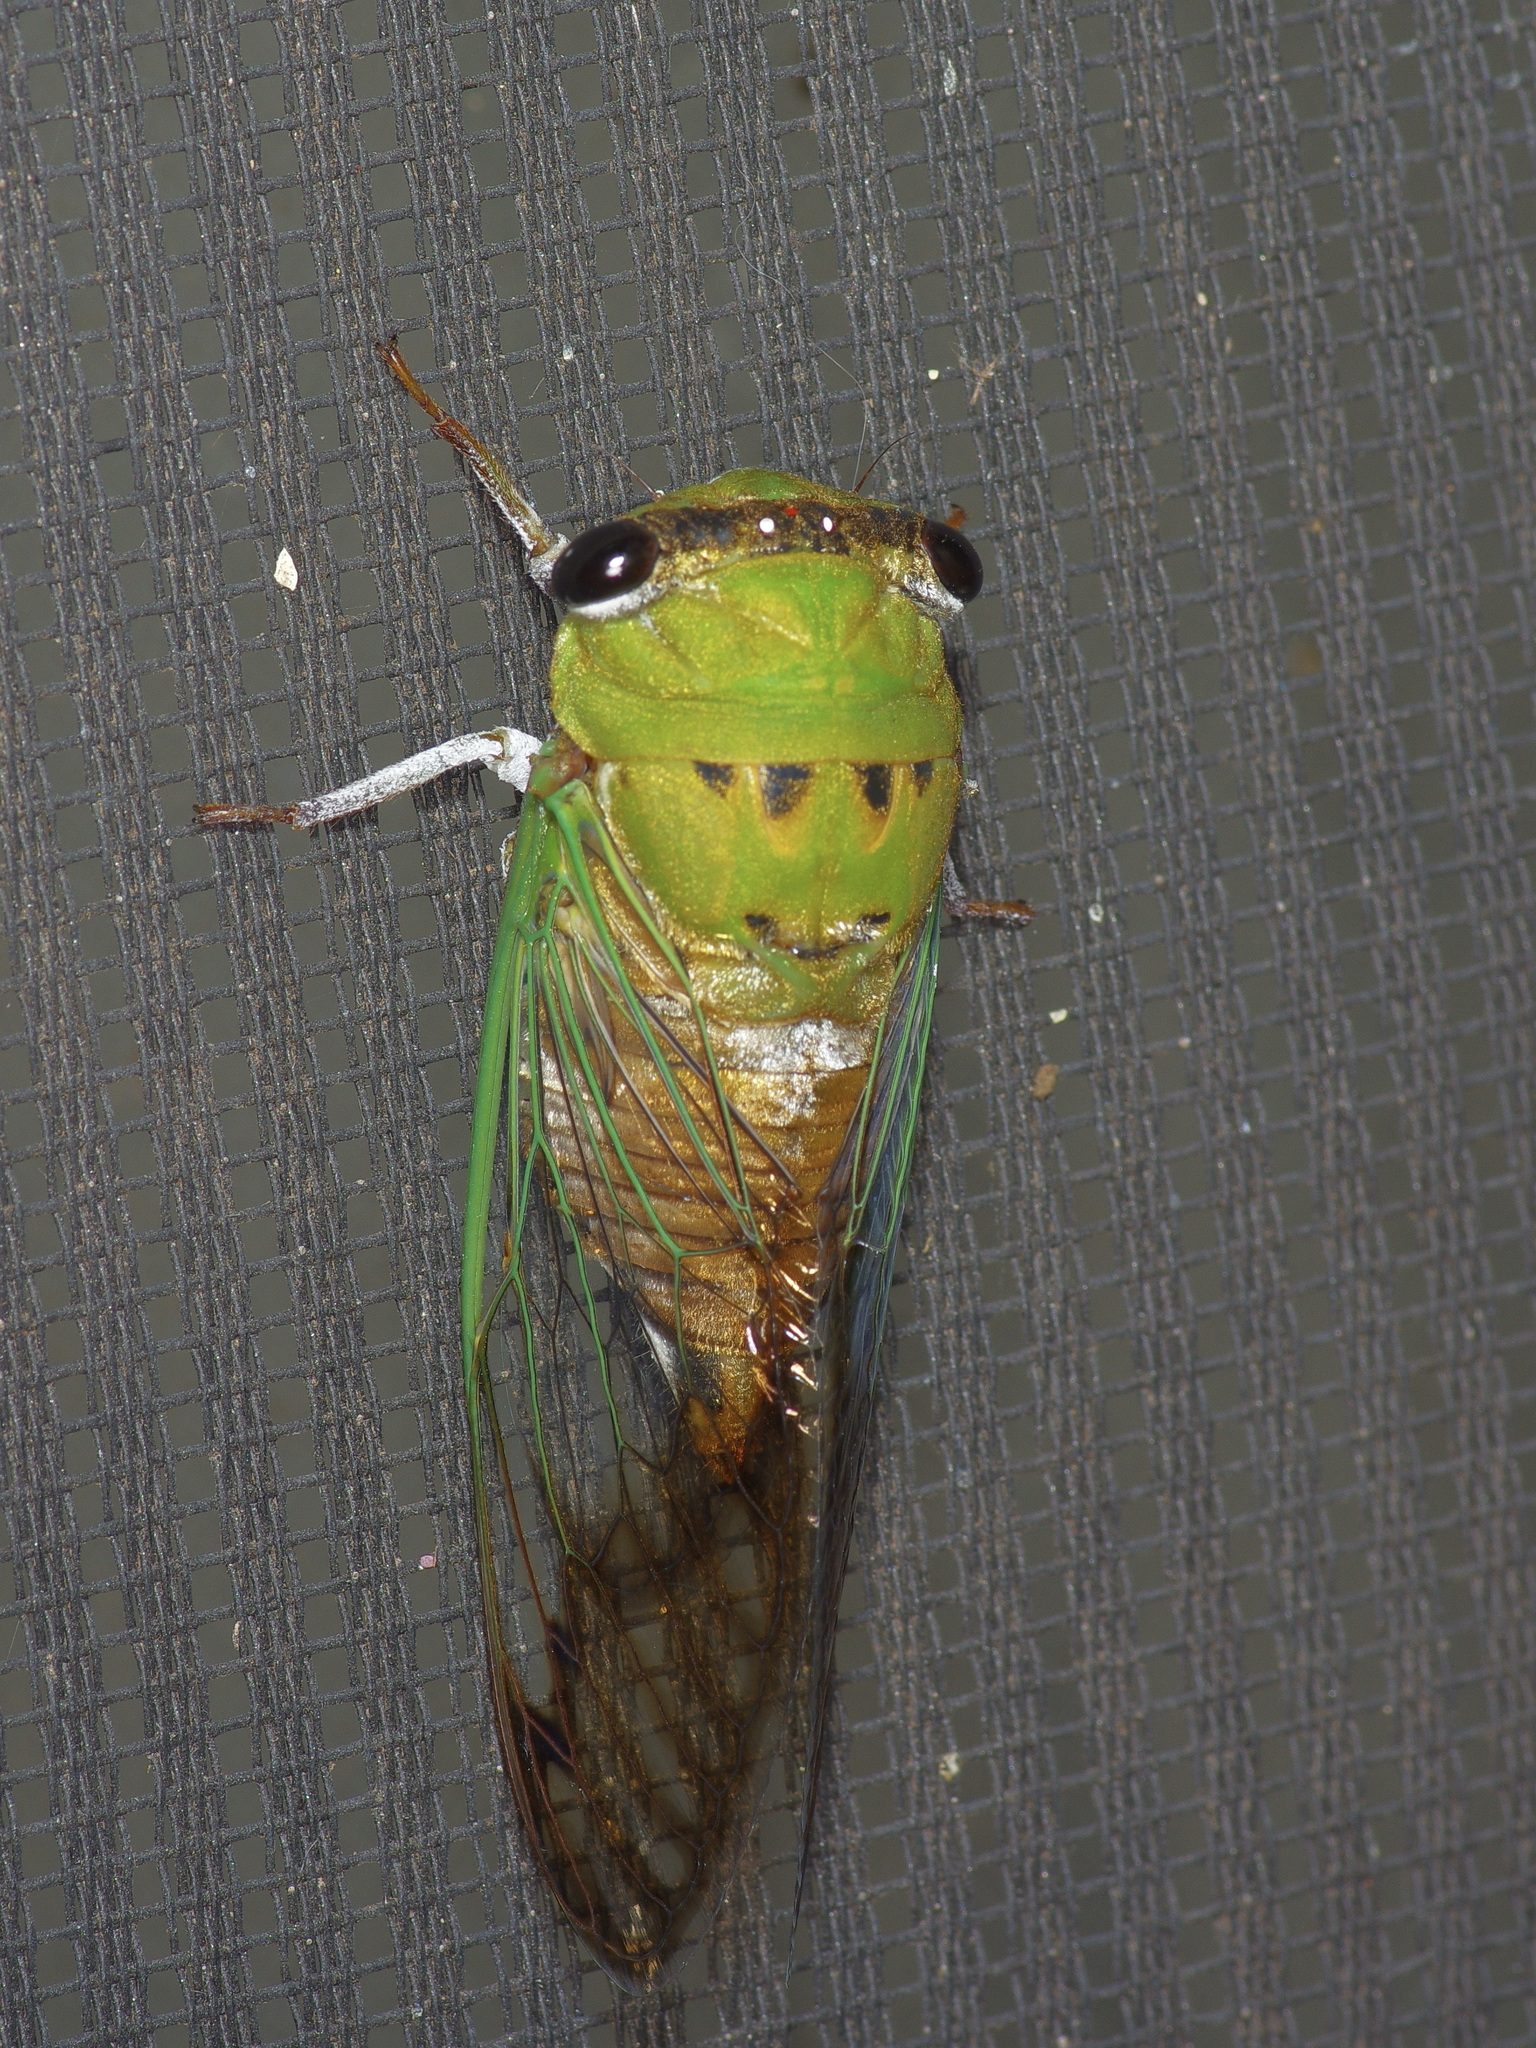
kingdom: Animalia
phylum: Arthropoda
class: Insecta
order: Hemiptera
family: Cicadidae
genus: Neotibicen
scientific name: Neotibicen superbus
